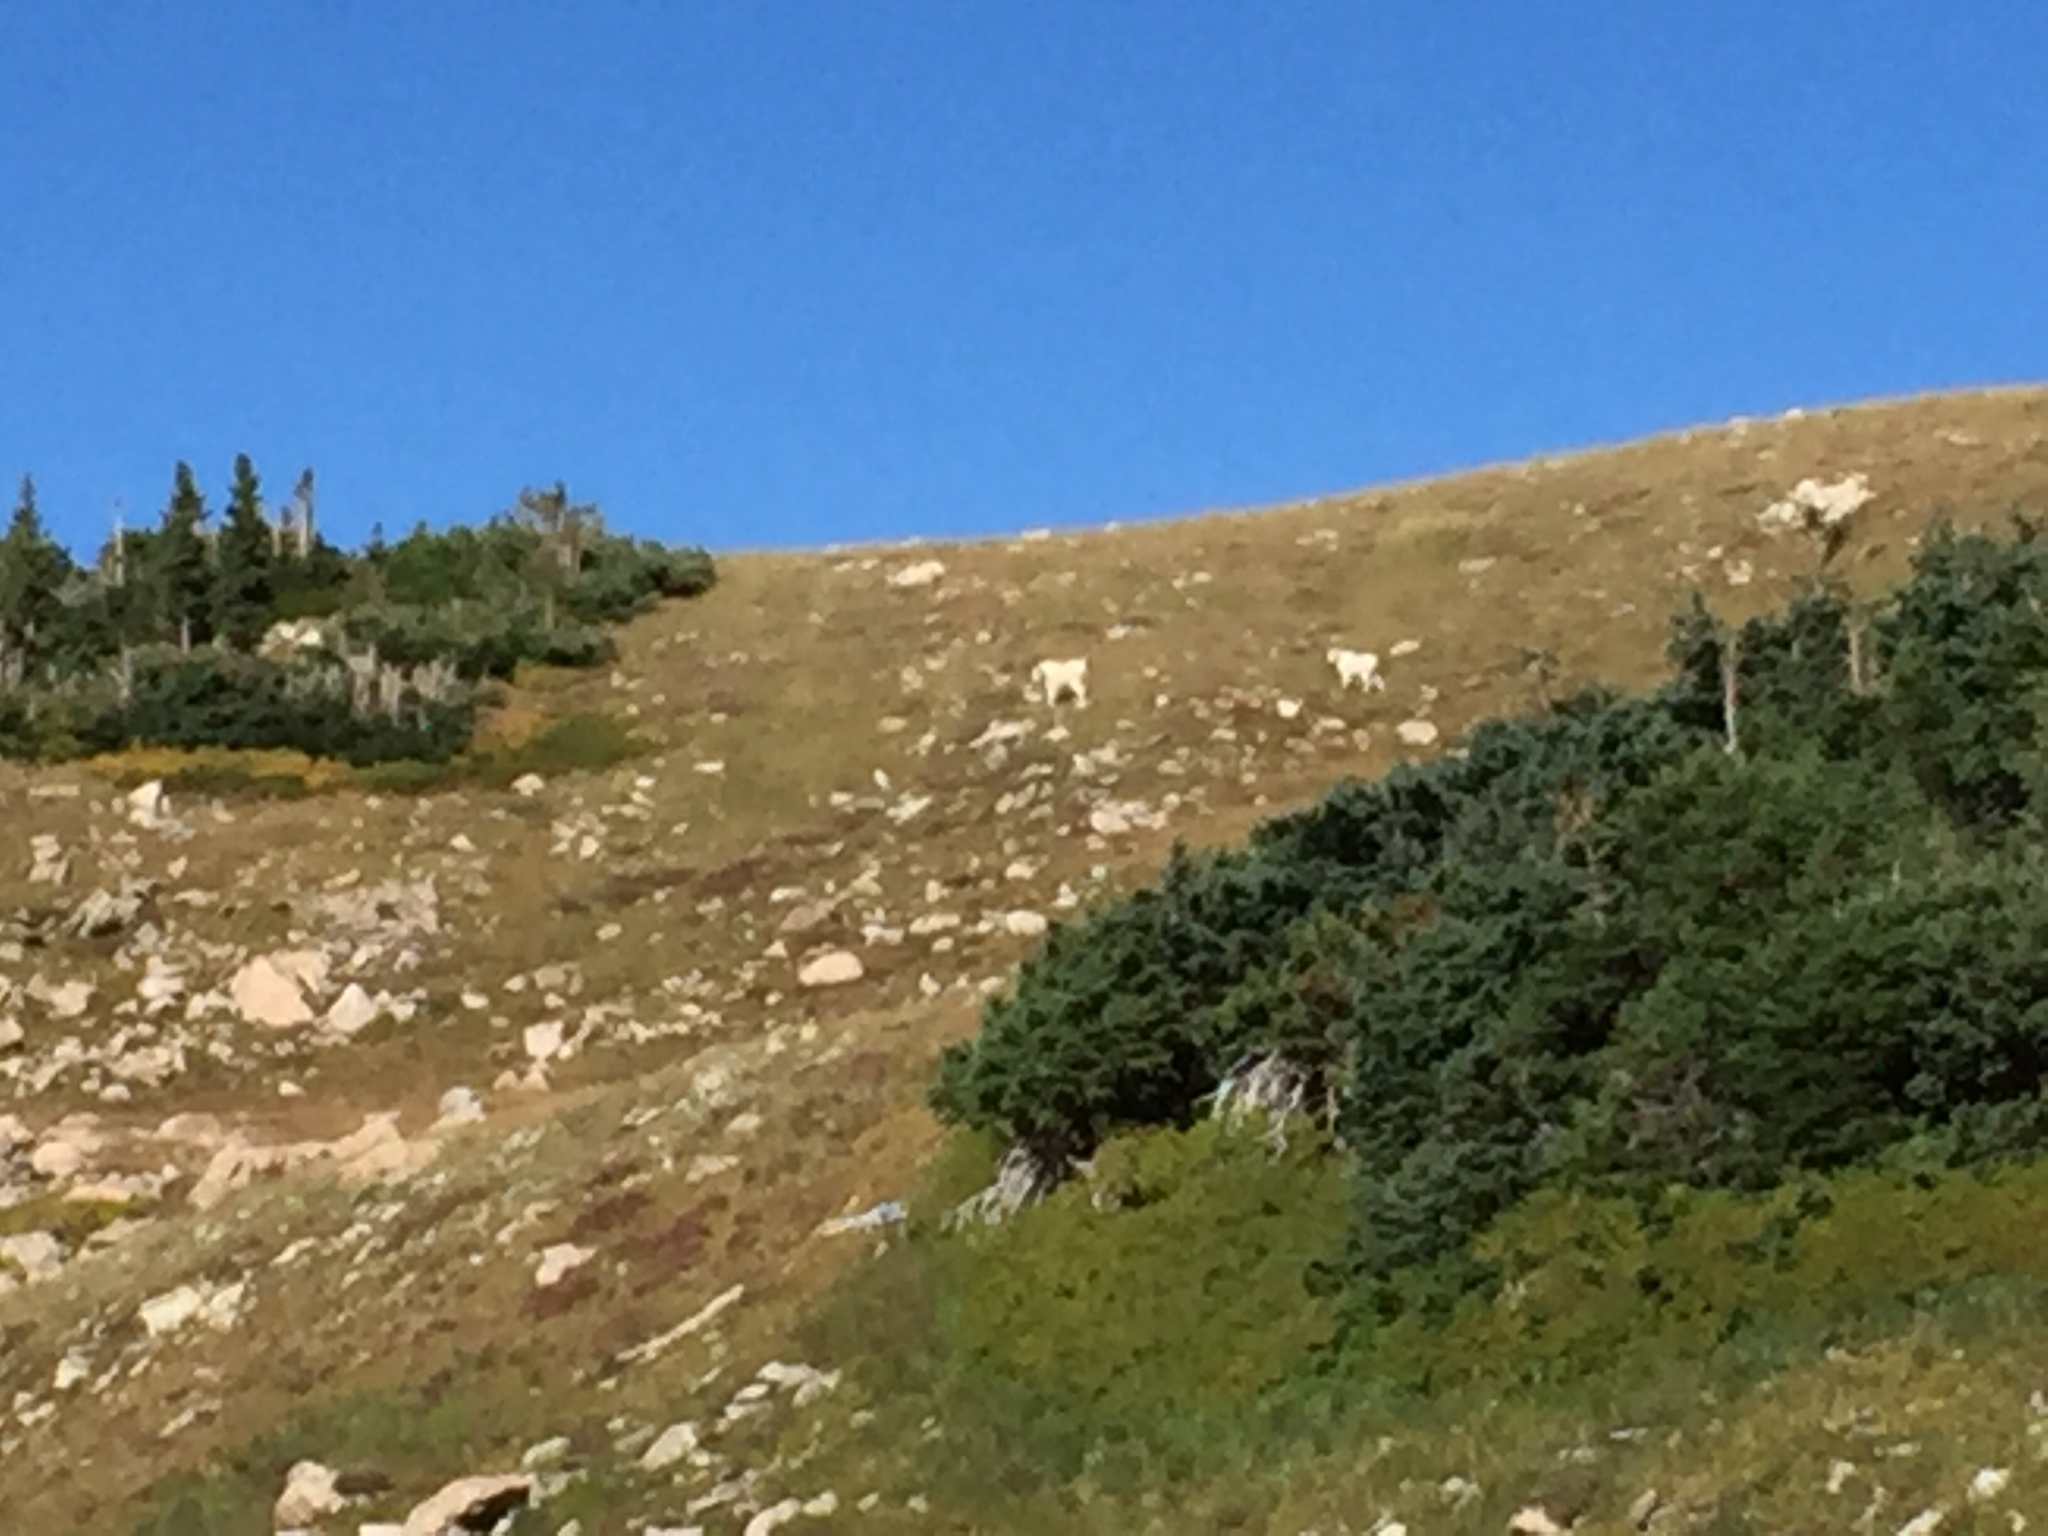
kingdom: Animalia
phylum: Chordata
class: Mammalia
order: Artiodactyla
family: Bovidae
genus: Oreamnos
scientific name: Oreamnos americanus
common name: Mountain goat
